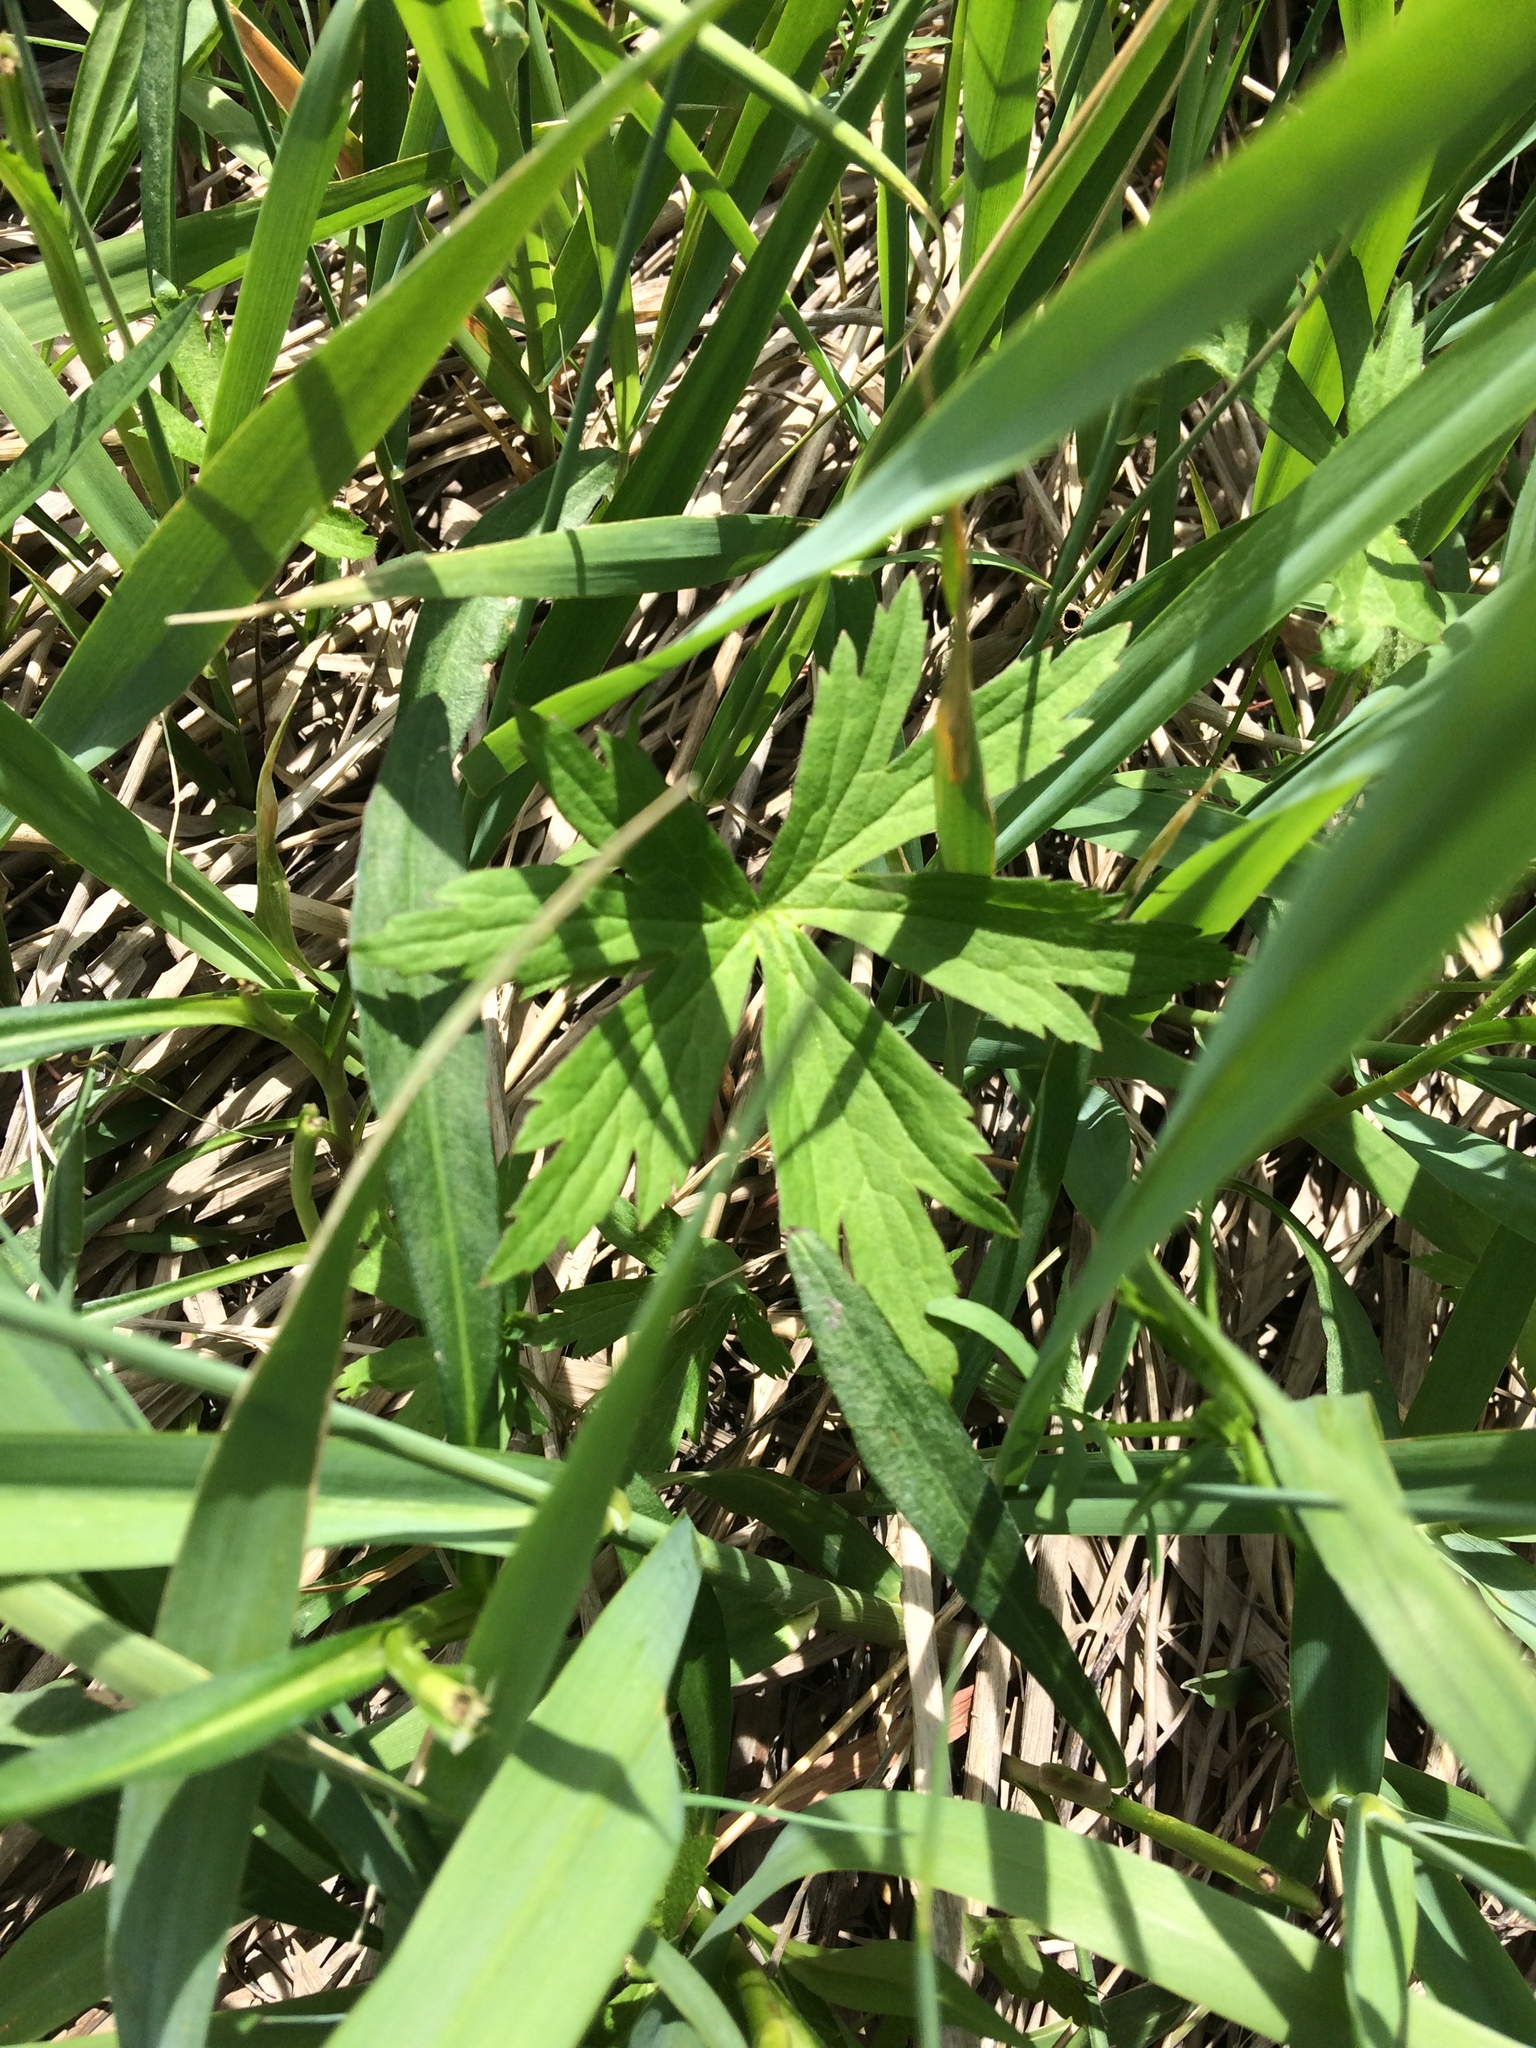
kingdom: Plantae
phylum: Tracheophyta
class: Magnoliopsida
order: Ranunculales
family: Ranunculaceae
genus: Anemonastrum
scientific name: Anemonastrum canadense
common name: Canada anemone
